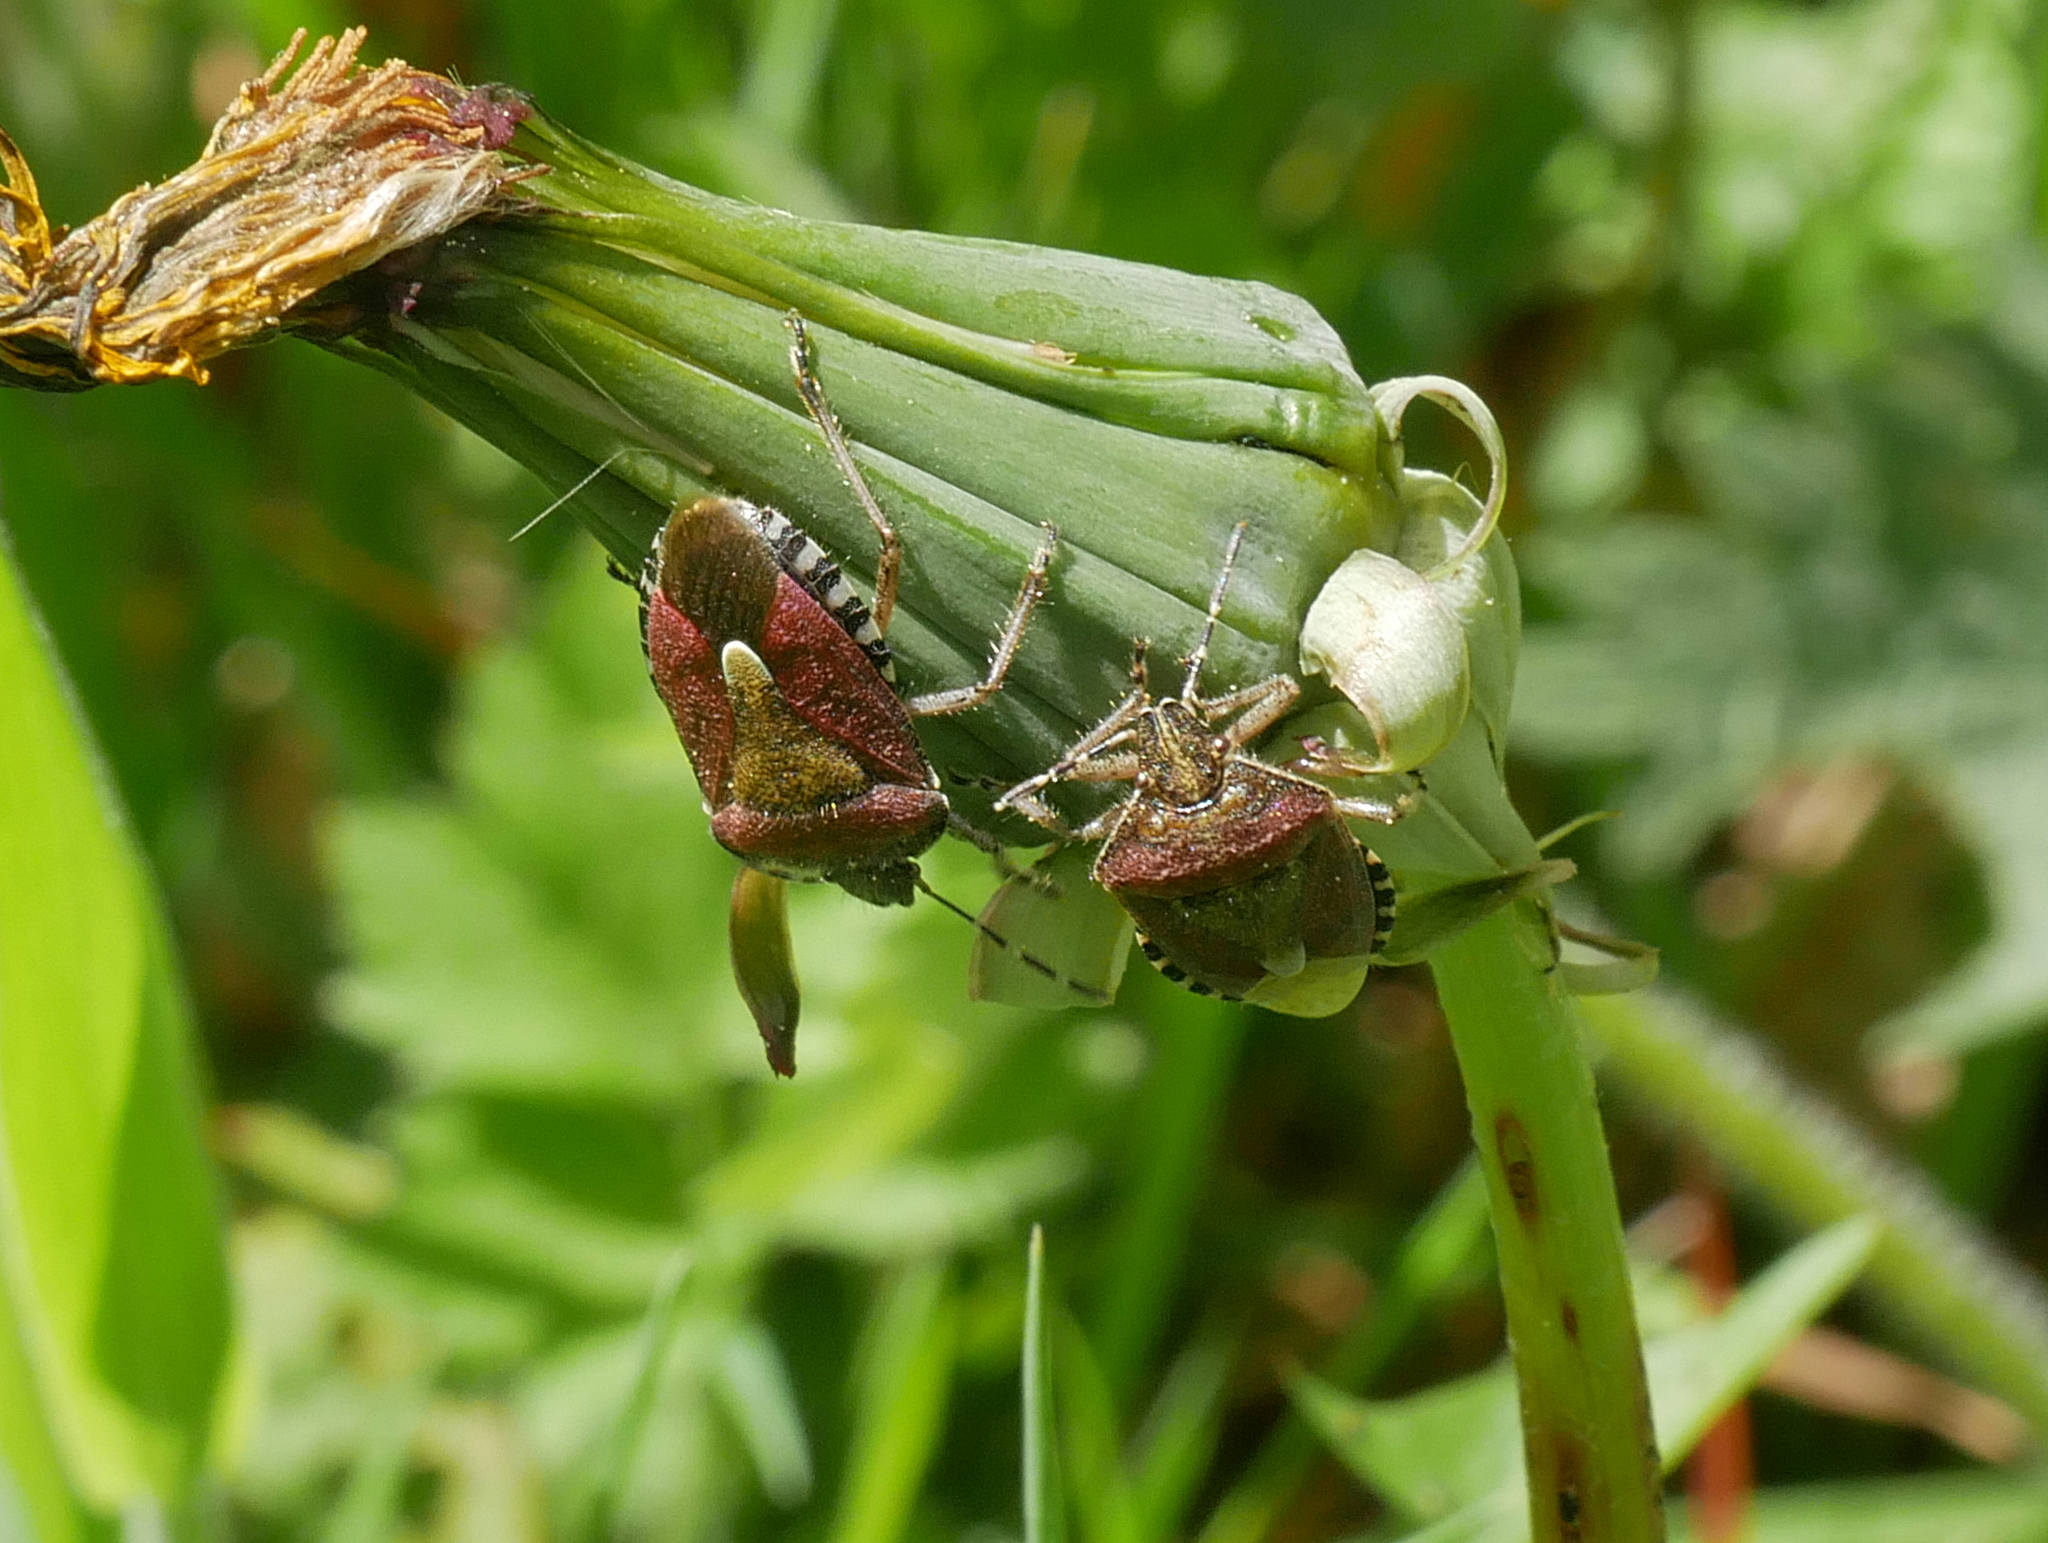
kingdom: Animalia
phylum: Arthropoda
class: Insecta
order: Hemiptera
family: Pentatomidae
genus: Dolycoris
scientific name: Dolycoris baccarum
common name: Sloe bug
